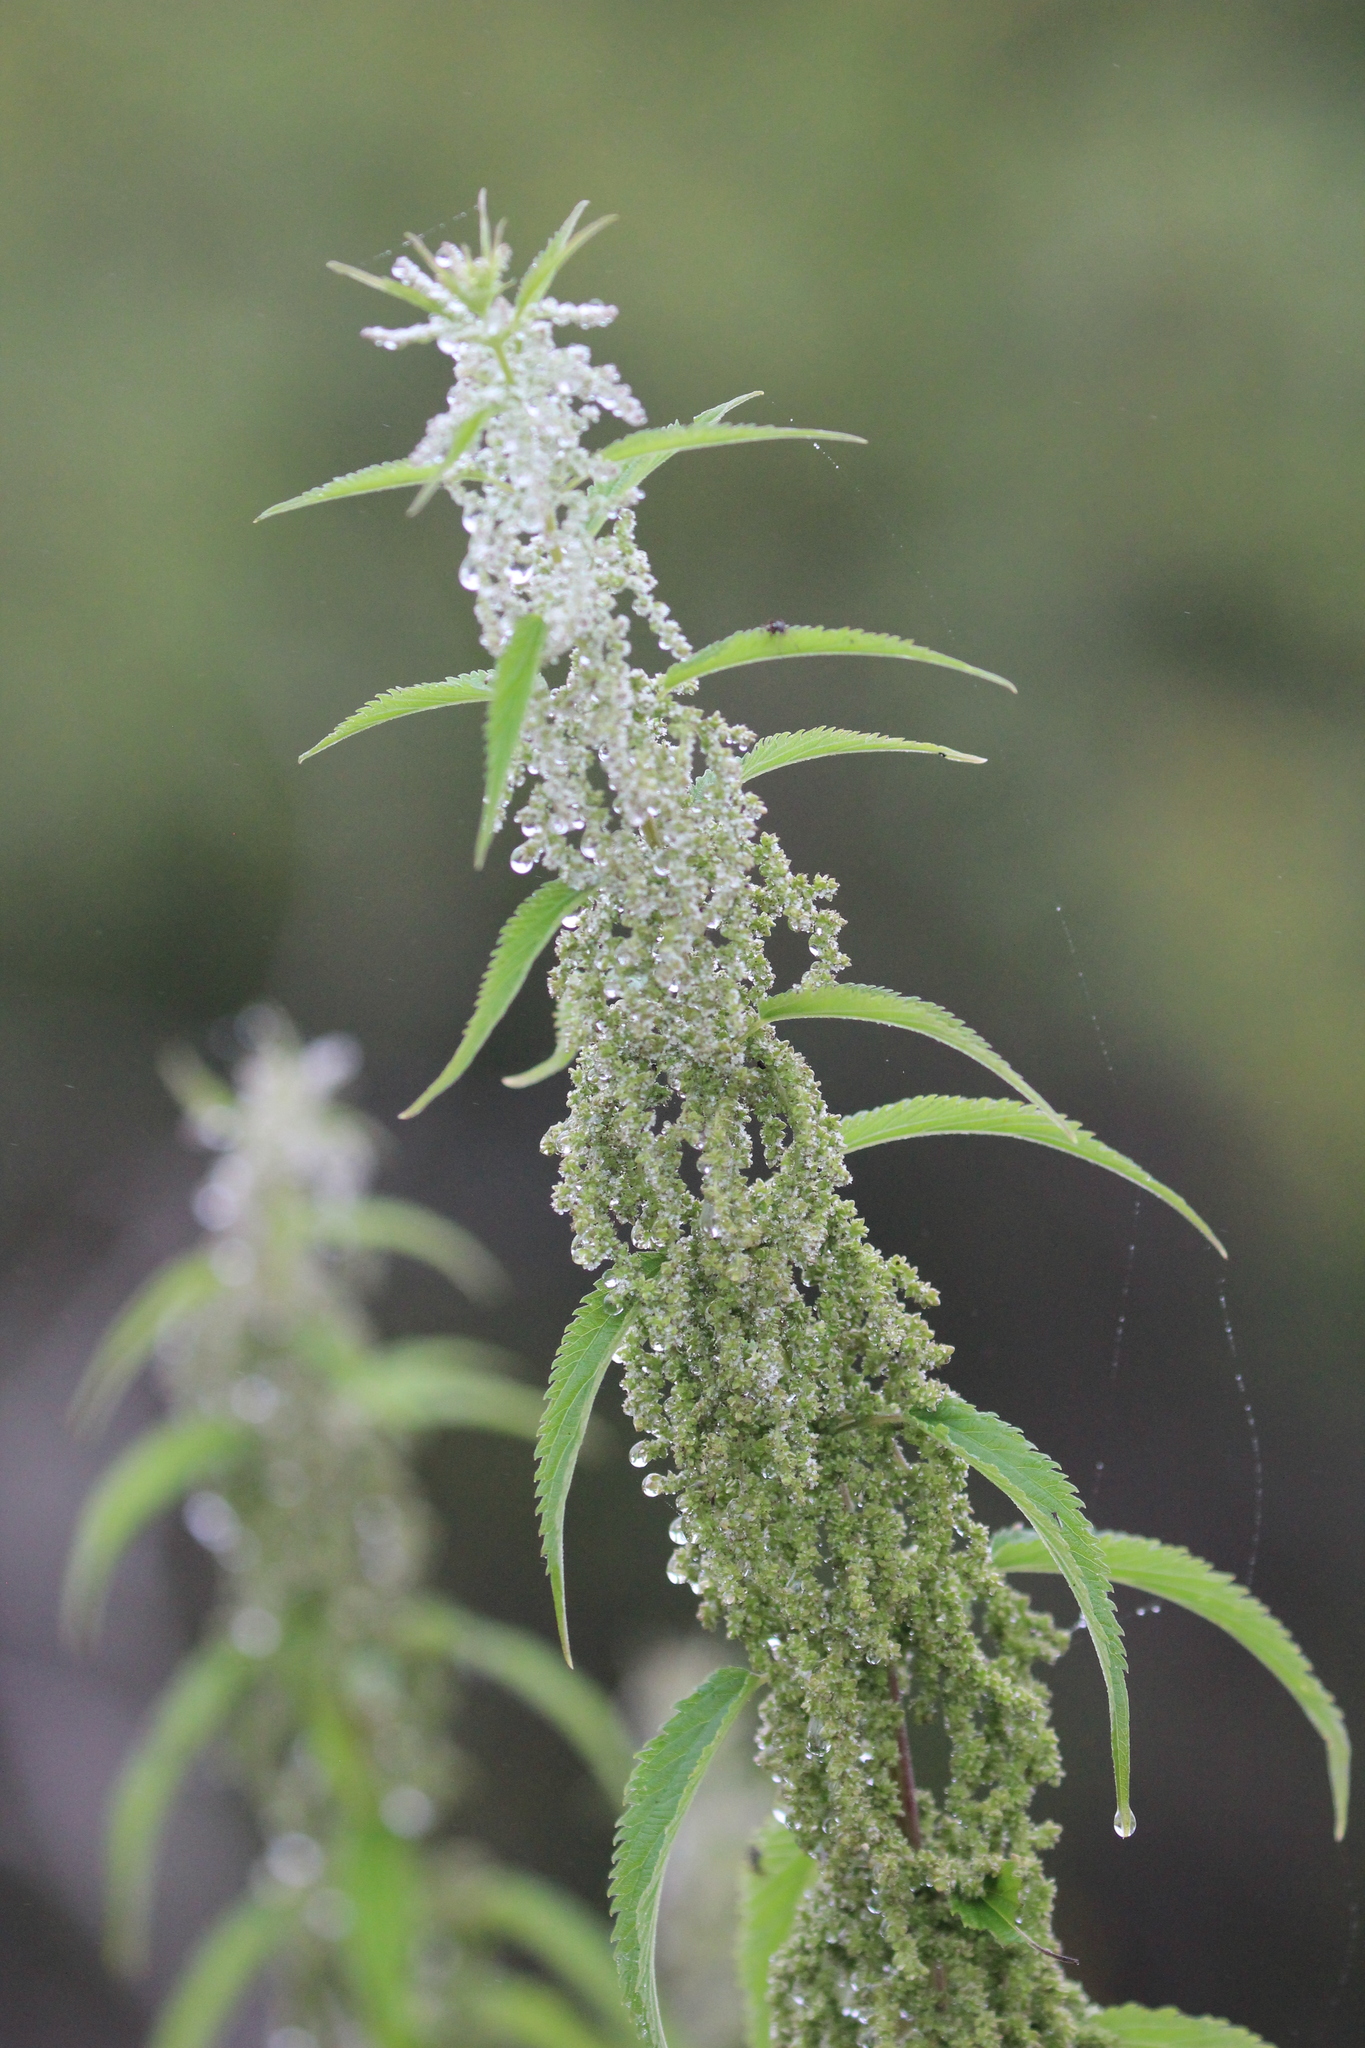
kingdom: Plantae
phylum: Tracheophyta
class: Magnoliopsida
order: Rosales
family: Urticaceae
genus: Urtica
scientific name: Urtica dioica
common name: Common nettle
